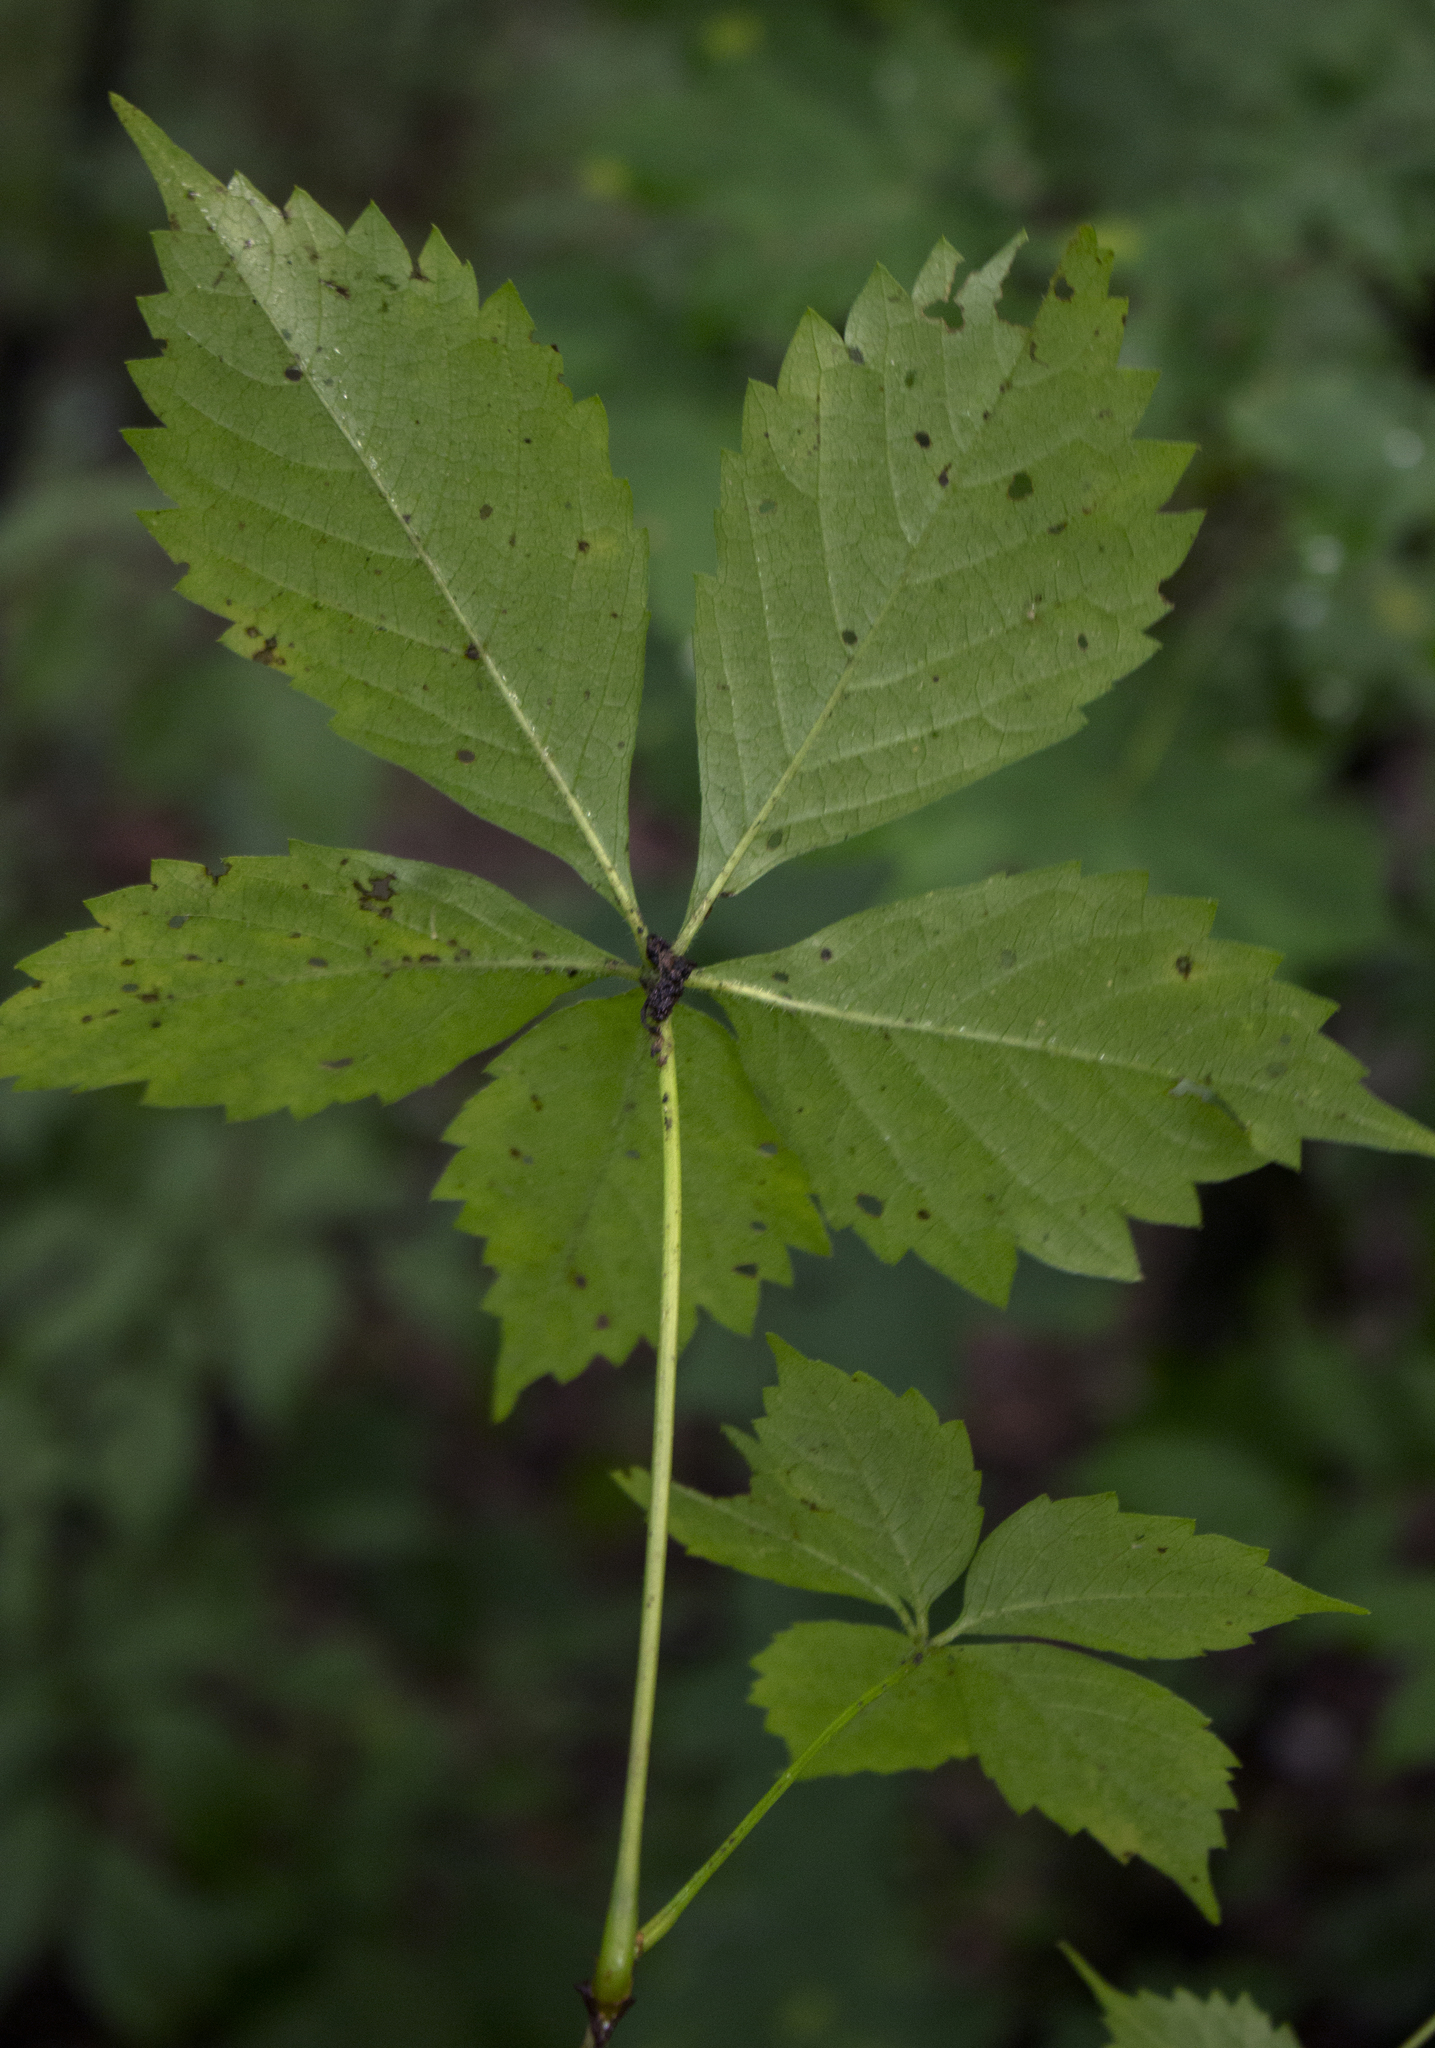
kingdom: Plantae
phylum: Tracheophyta
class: Magnoliopsida
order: Vitales
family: Vitaceae
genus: Parthenocissus
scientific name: Parthenocissus inserta
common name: False virginia-creeper
